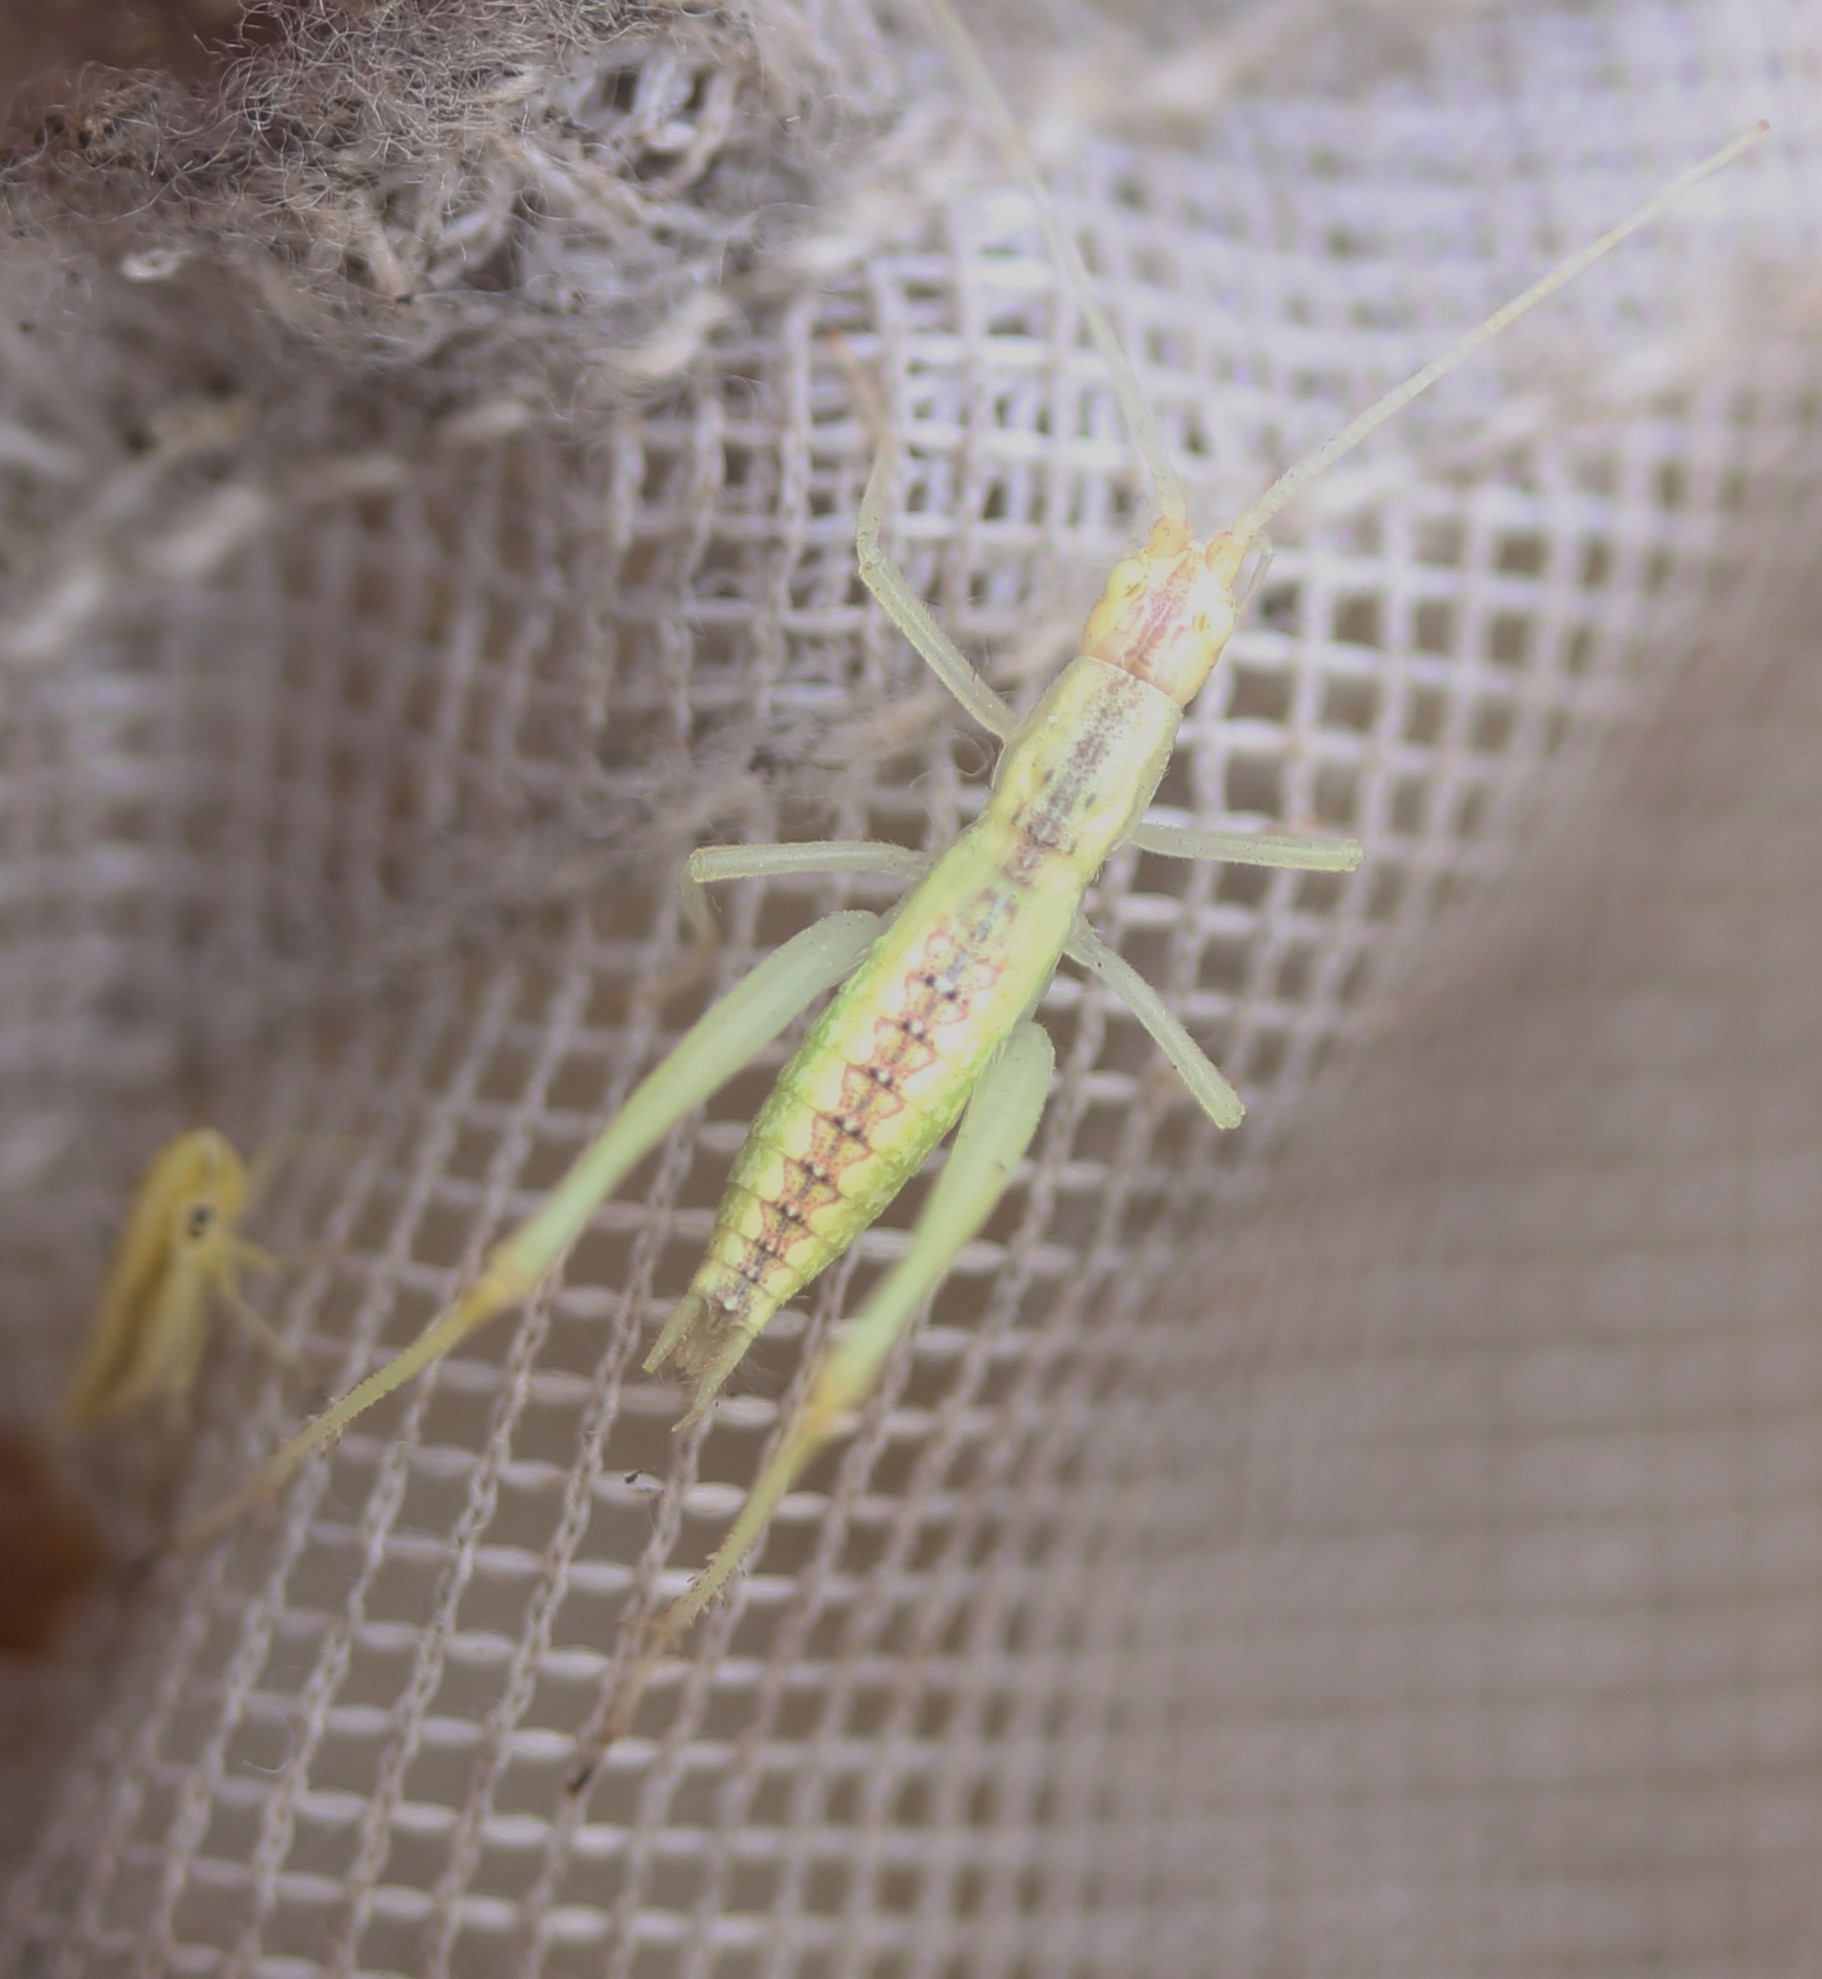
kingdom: Animalia
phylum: Arthropoda
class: Insecta
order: Orthoptera
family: Gryllidae
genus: Oecanthus
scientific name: Oecanthus latipennis
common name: Broad-winged tree cricket
